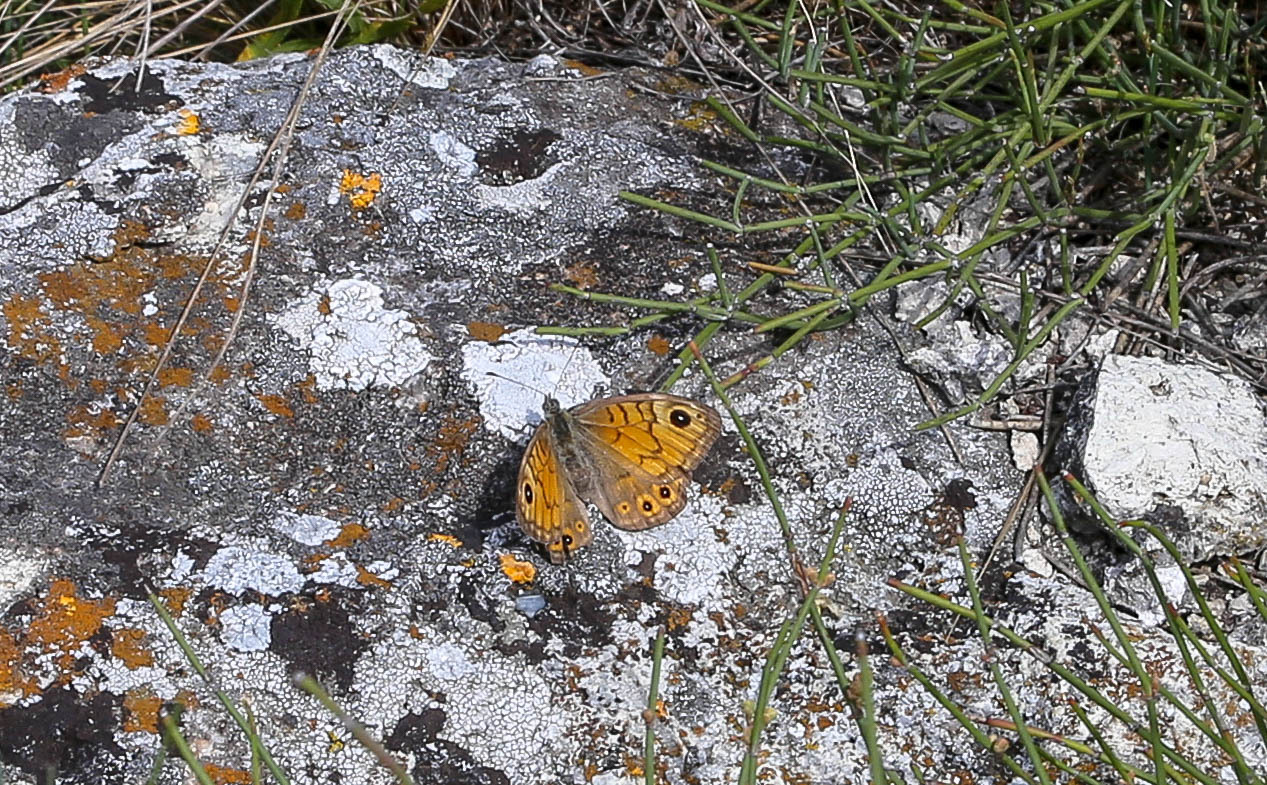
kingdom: Animalia
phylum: Arthropoda
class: Insecta
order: Lepidoptera
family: Nymphalidae
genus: Pararge
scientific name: Pararge Lasiommata megera
